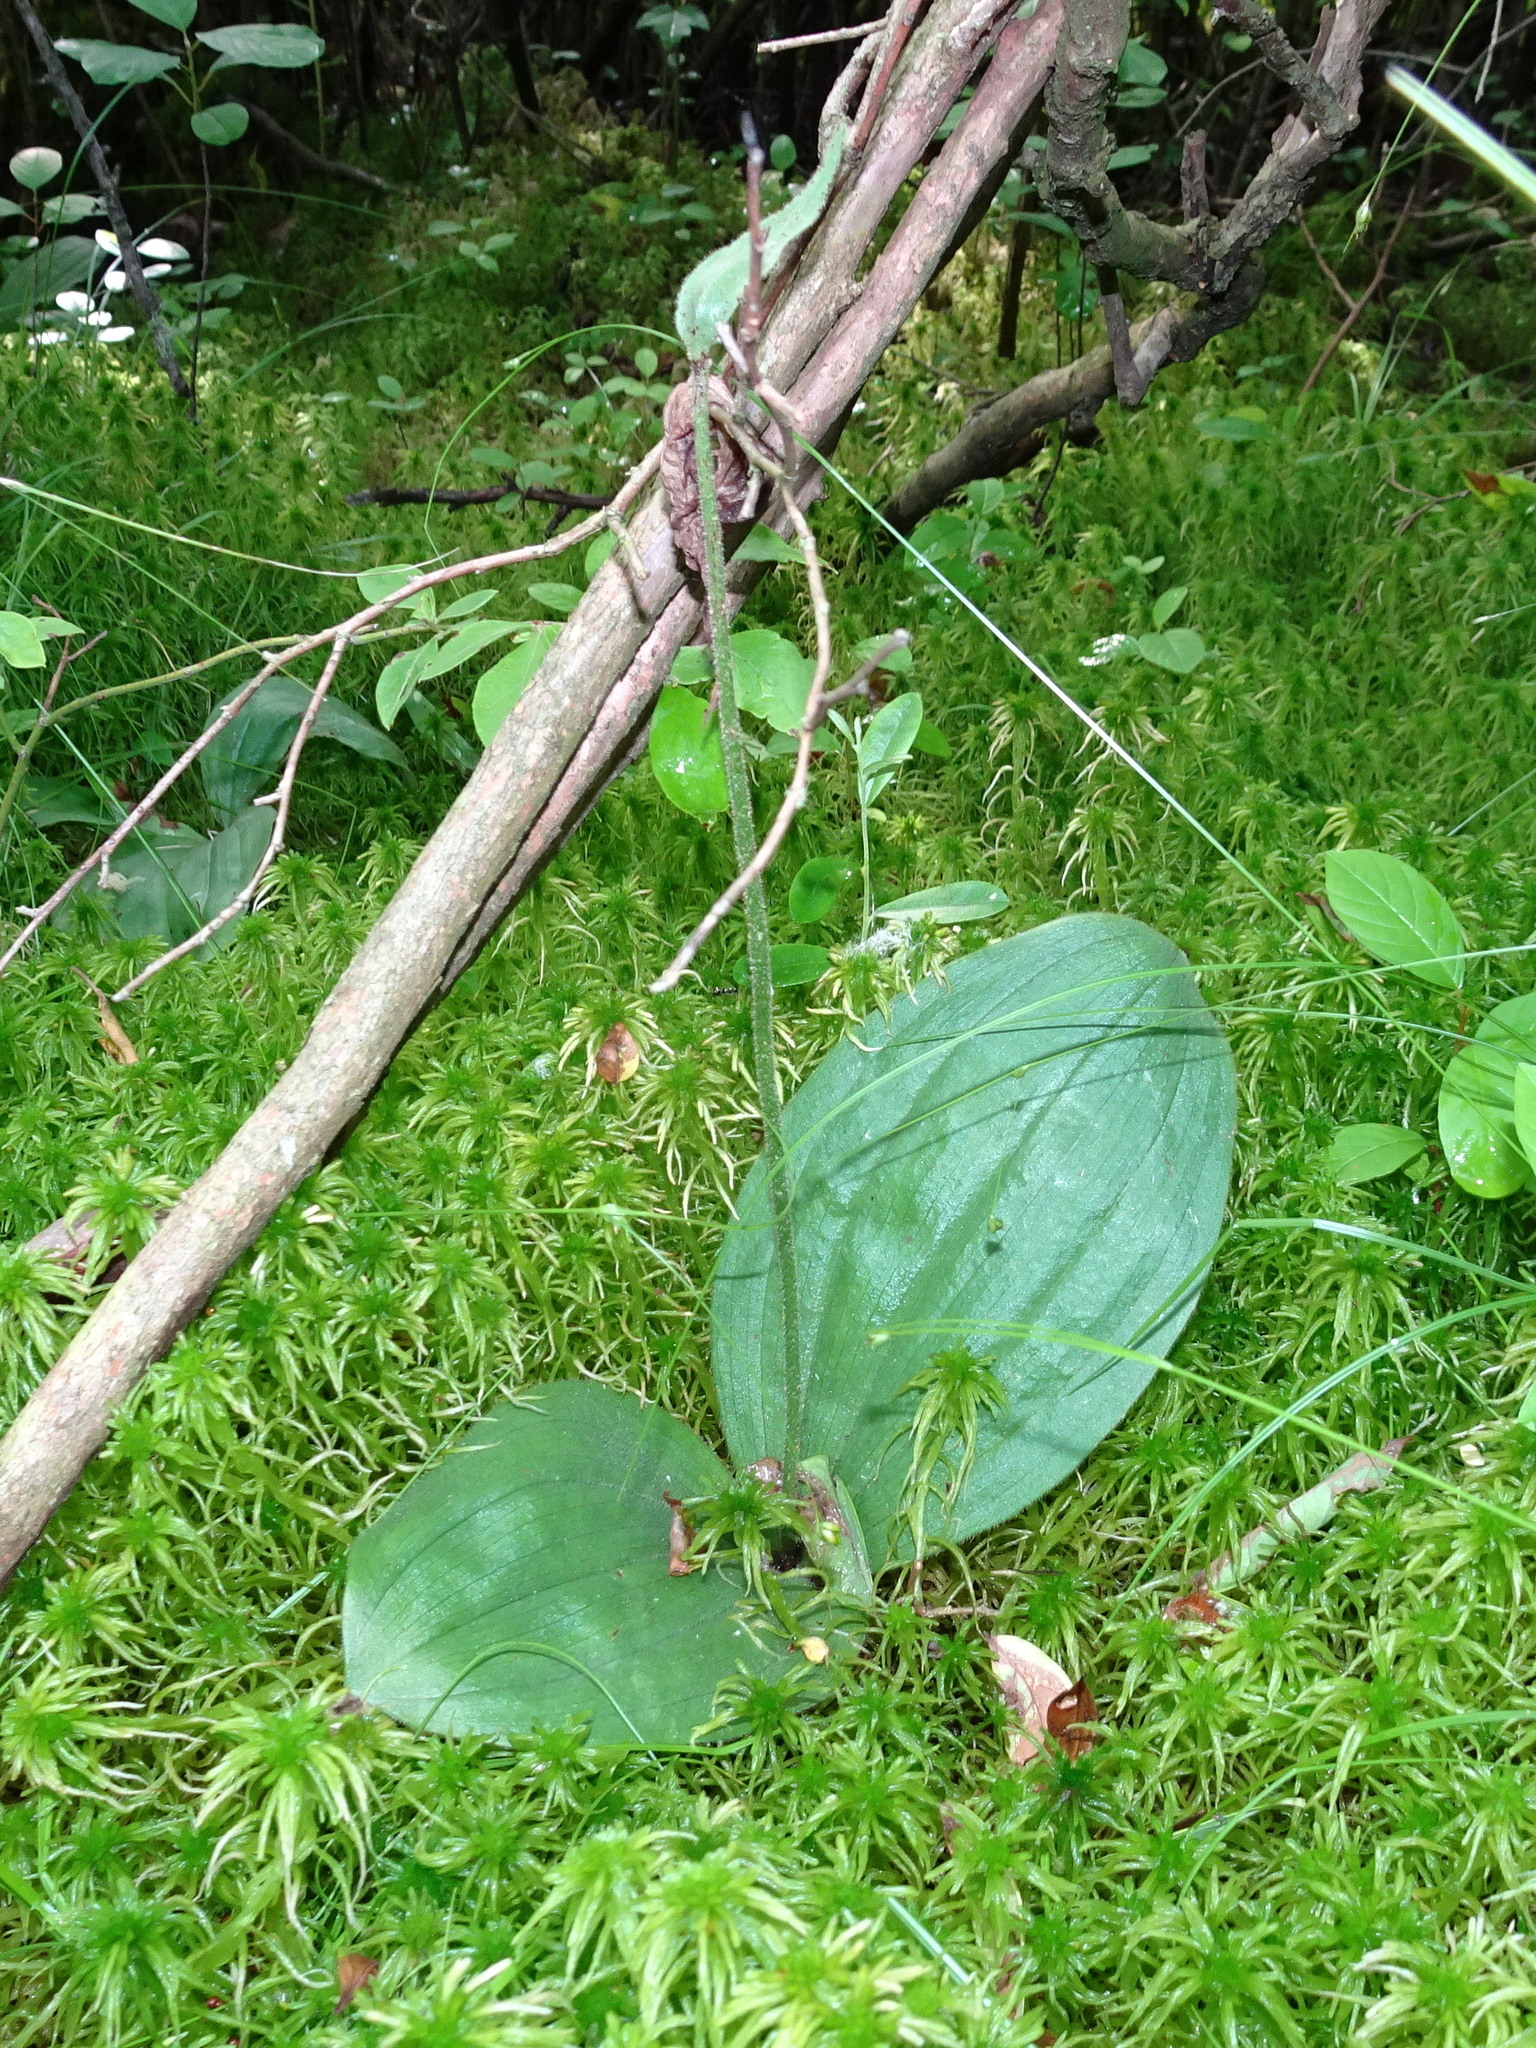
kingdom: Plantae
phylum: Tracheophyta
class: Liliopsida
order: Asparagales
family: Orchidaceae
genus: Cypripedium
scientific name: Cypripedium acaule
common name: Pink lady's-slipper
